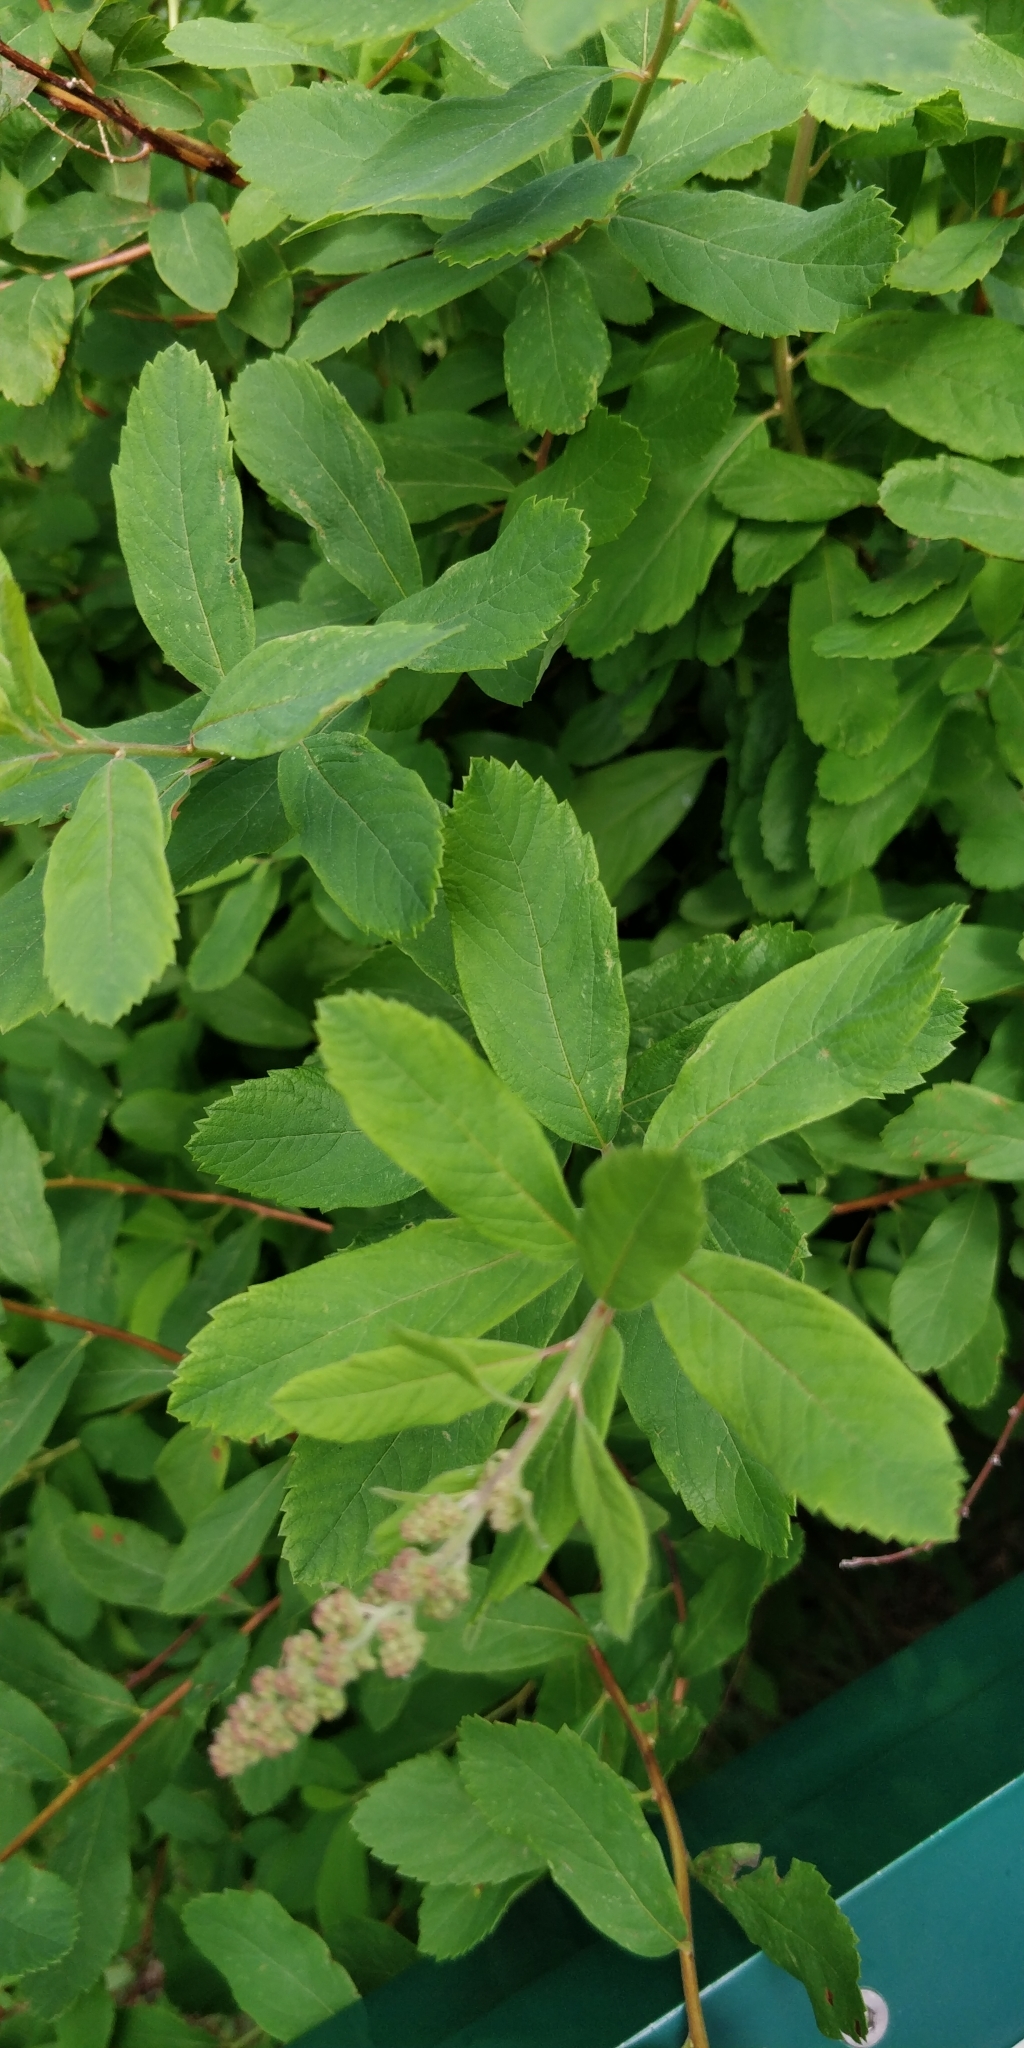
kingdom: Plantae
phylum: Tracheophyta
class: Magnoliopsida
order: Rosales
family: Rosaceae
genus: Spiraea
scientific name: Spiraea douglasii
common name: Steeplebush
